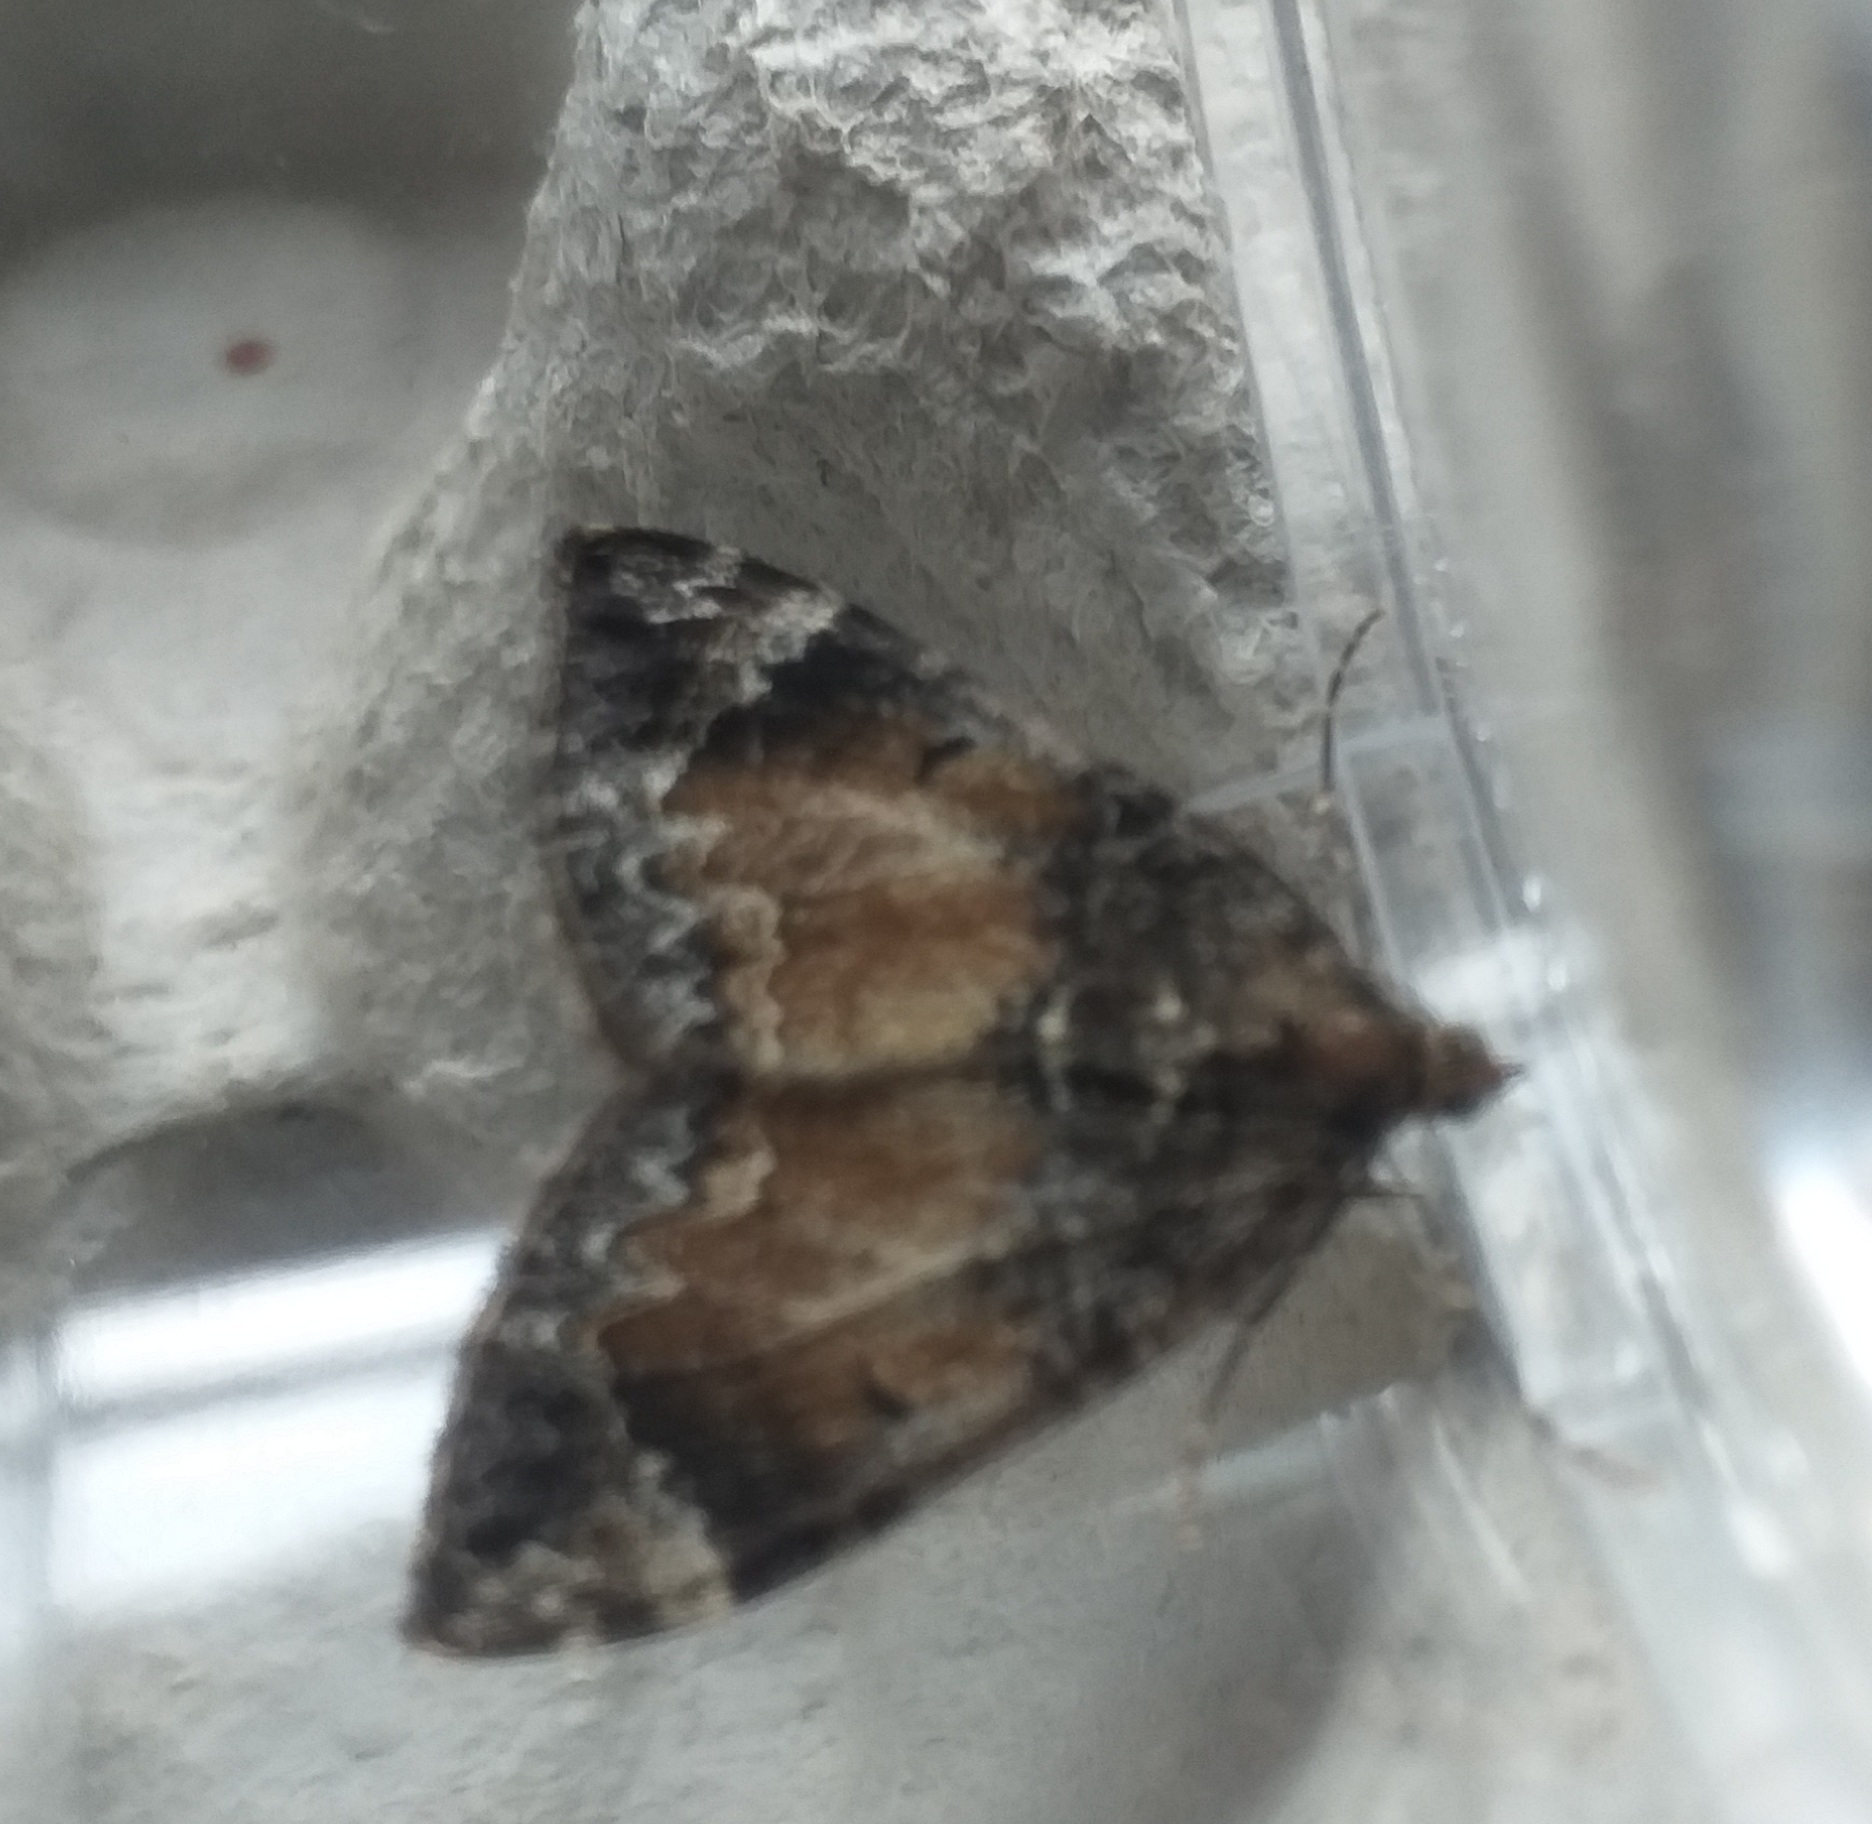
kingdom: Animalia
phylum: Arthropoda
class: Insecta
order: Lepidoptera
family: Geometridae
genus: Dysstroma
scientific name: Dysstroma truncata
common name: Common marbled carpet
